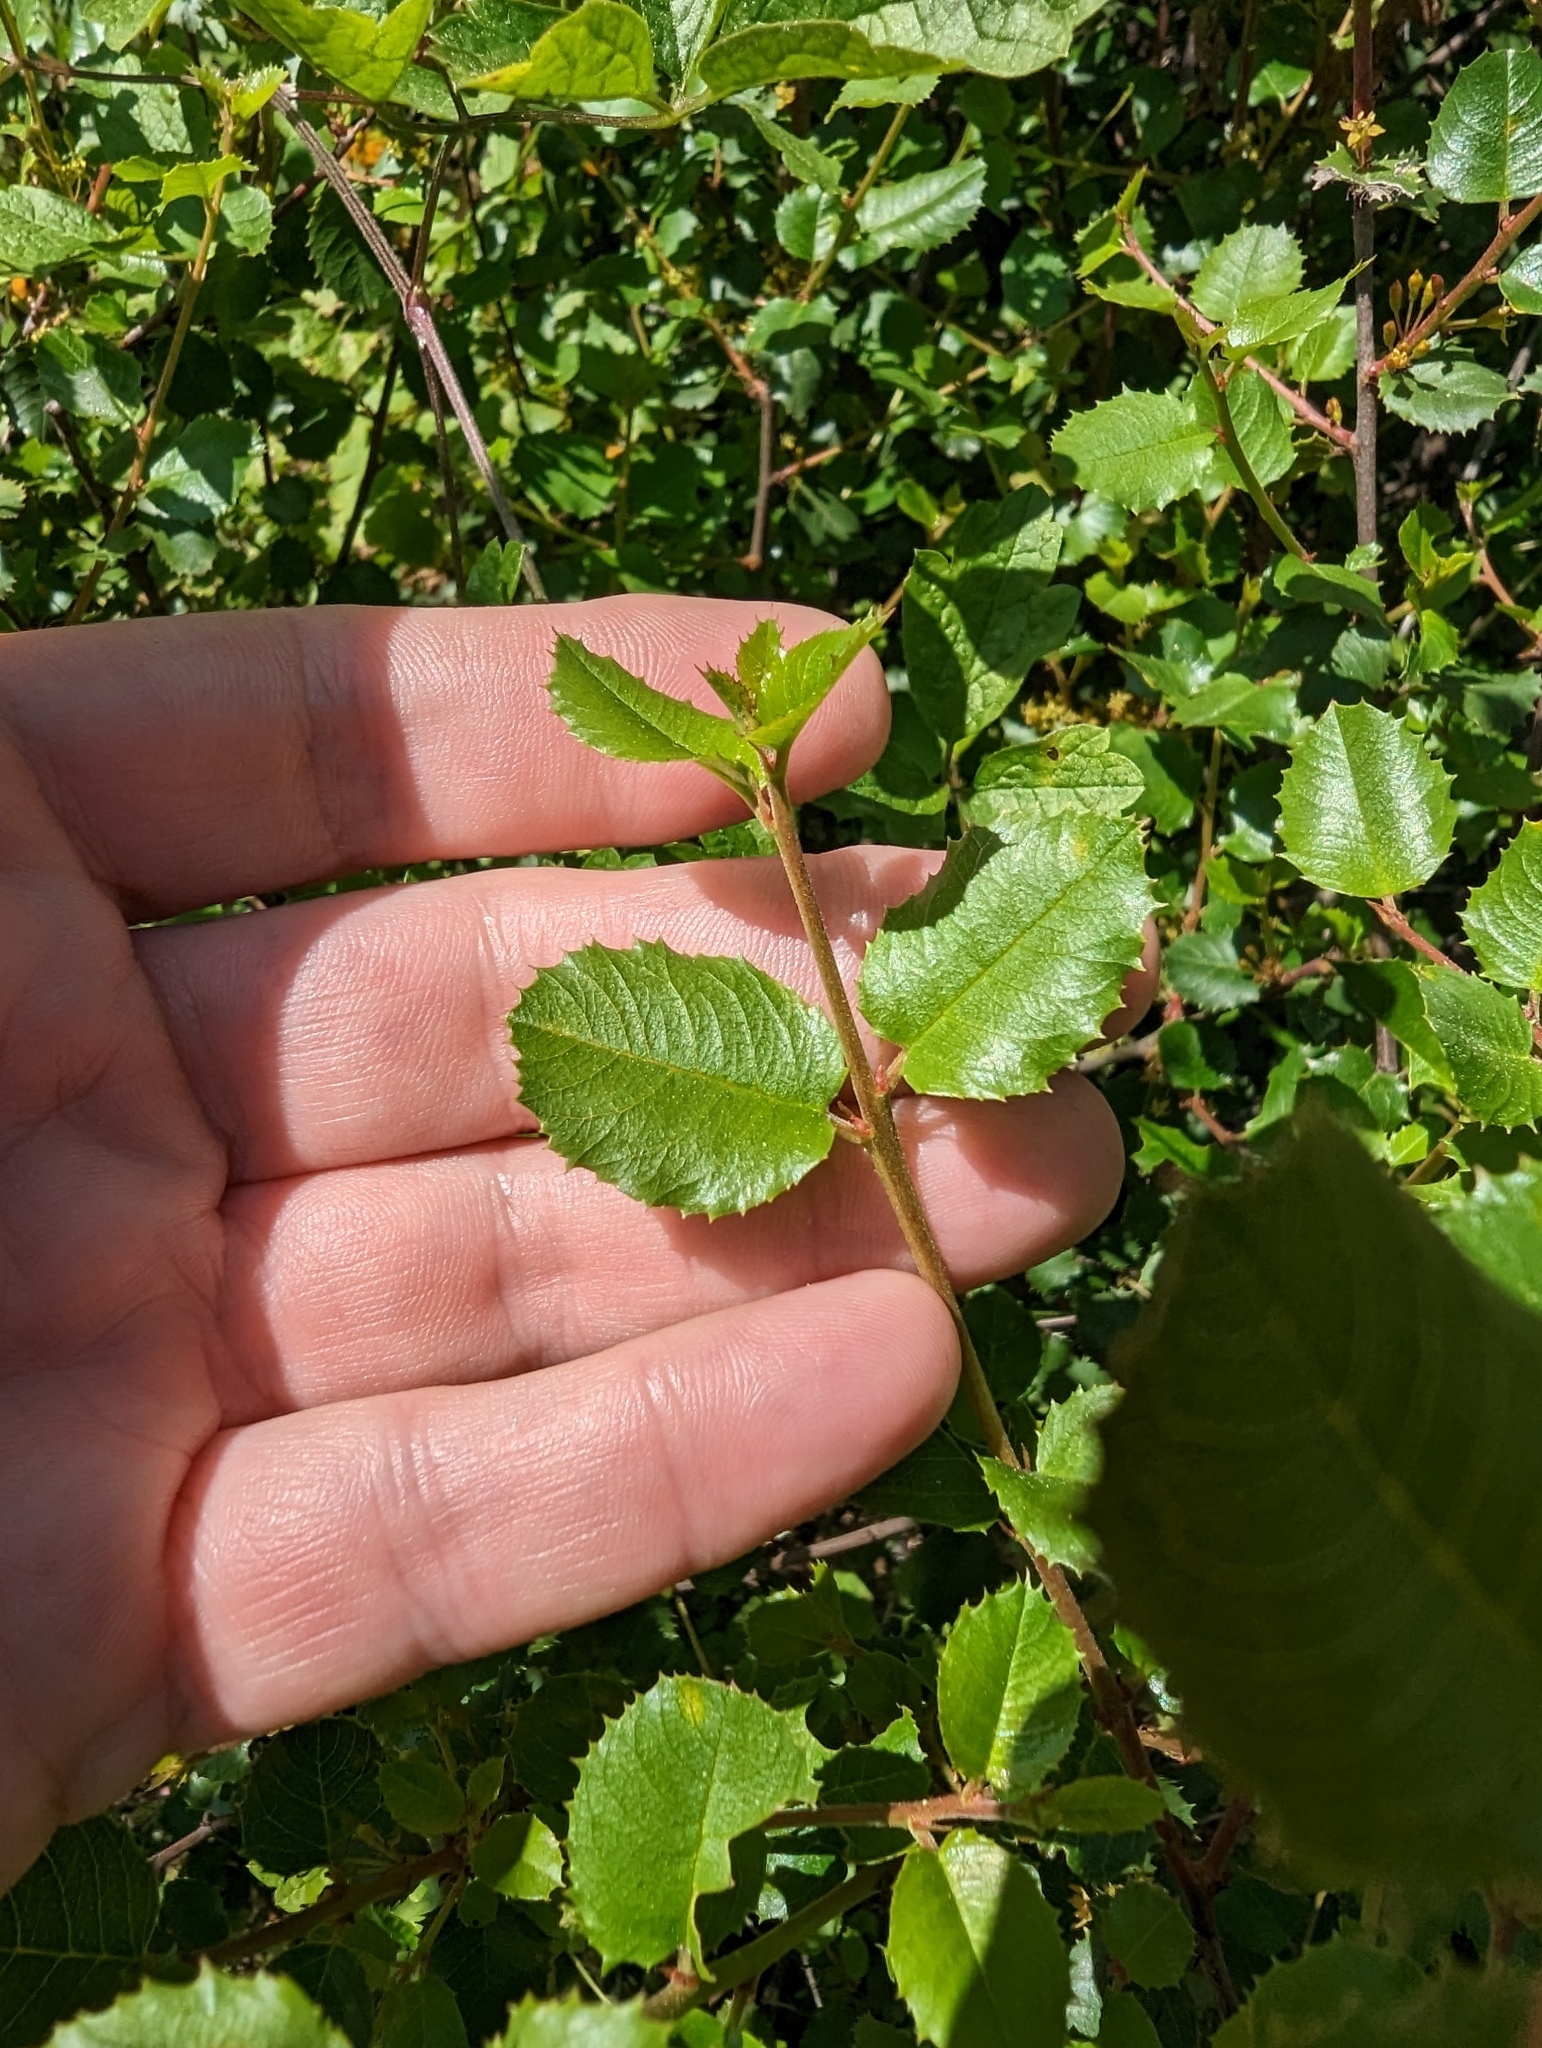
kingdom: Plantae
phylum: Tracheophyta
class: Magnoliopsida
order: Rosales
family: Rhamnaceae
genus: Endotropis
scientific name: Endotropis crocea
